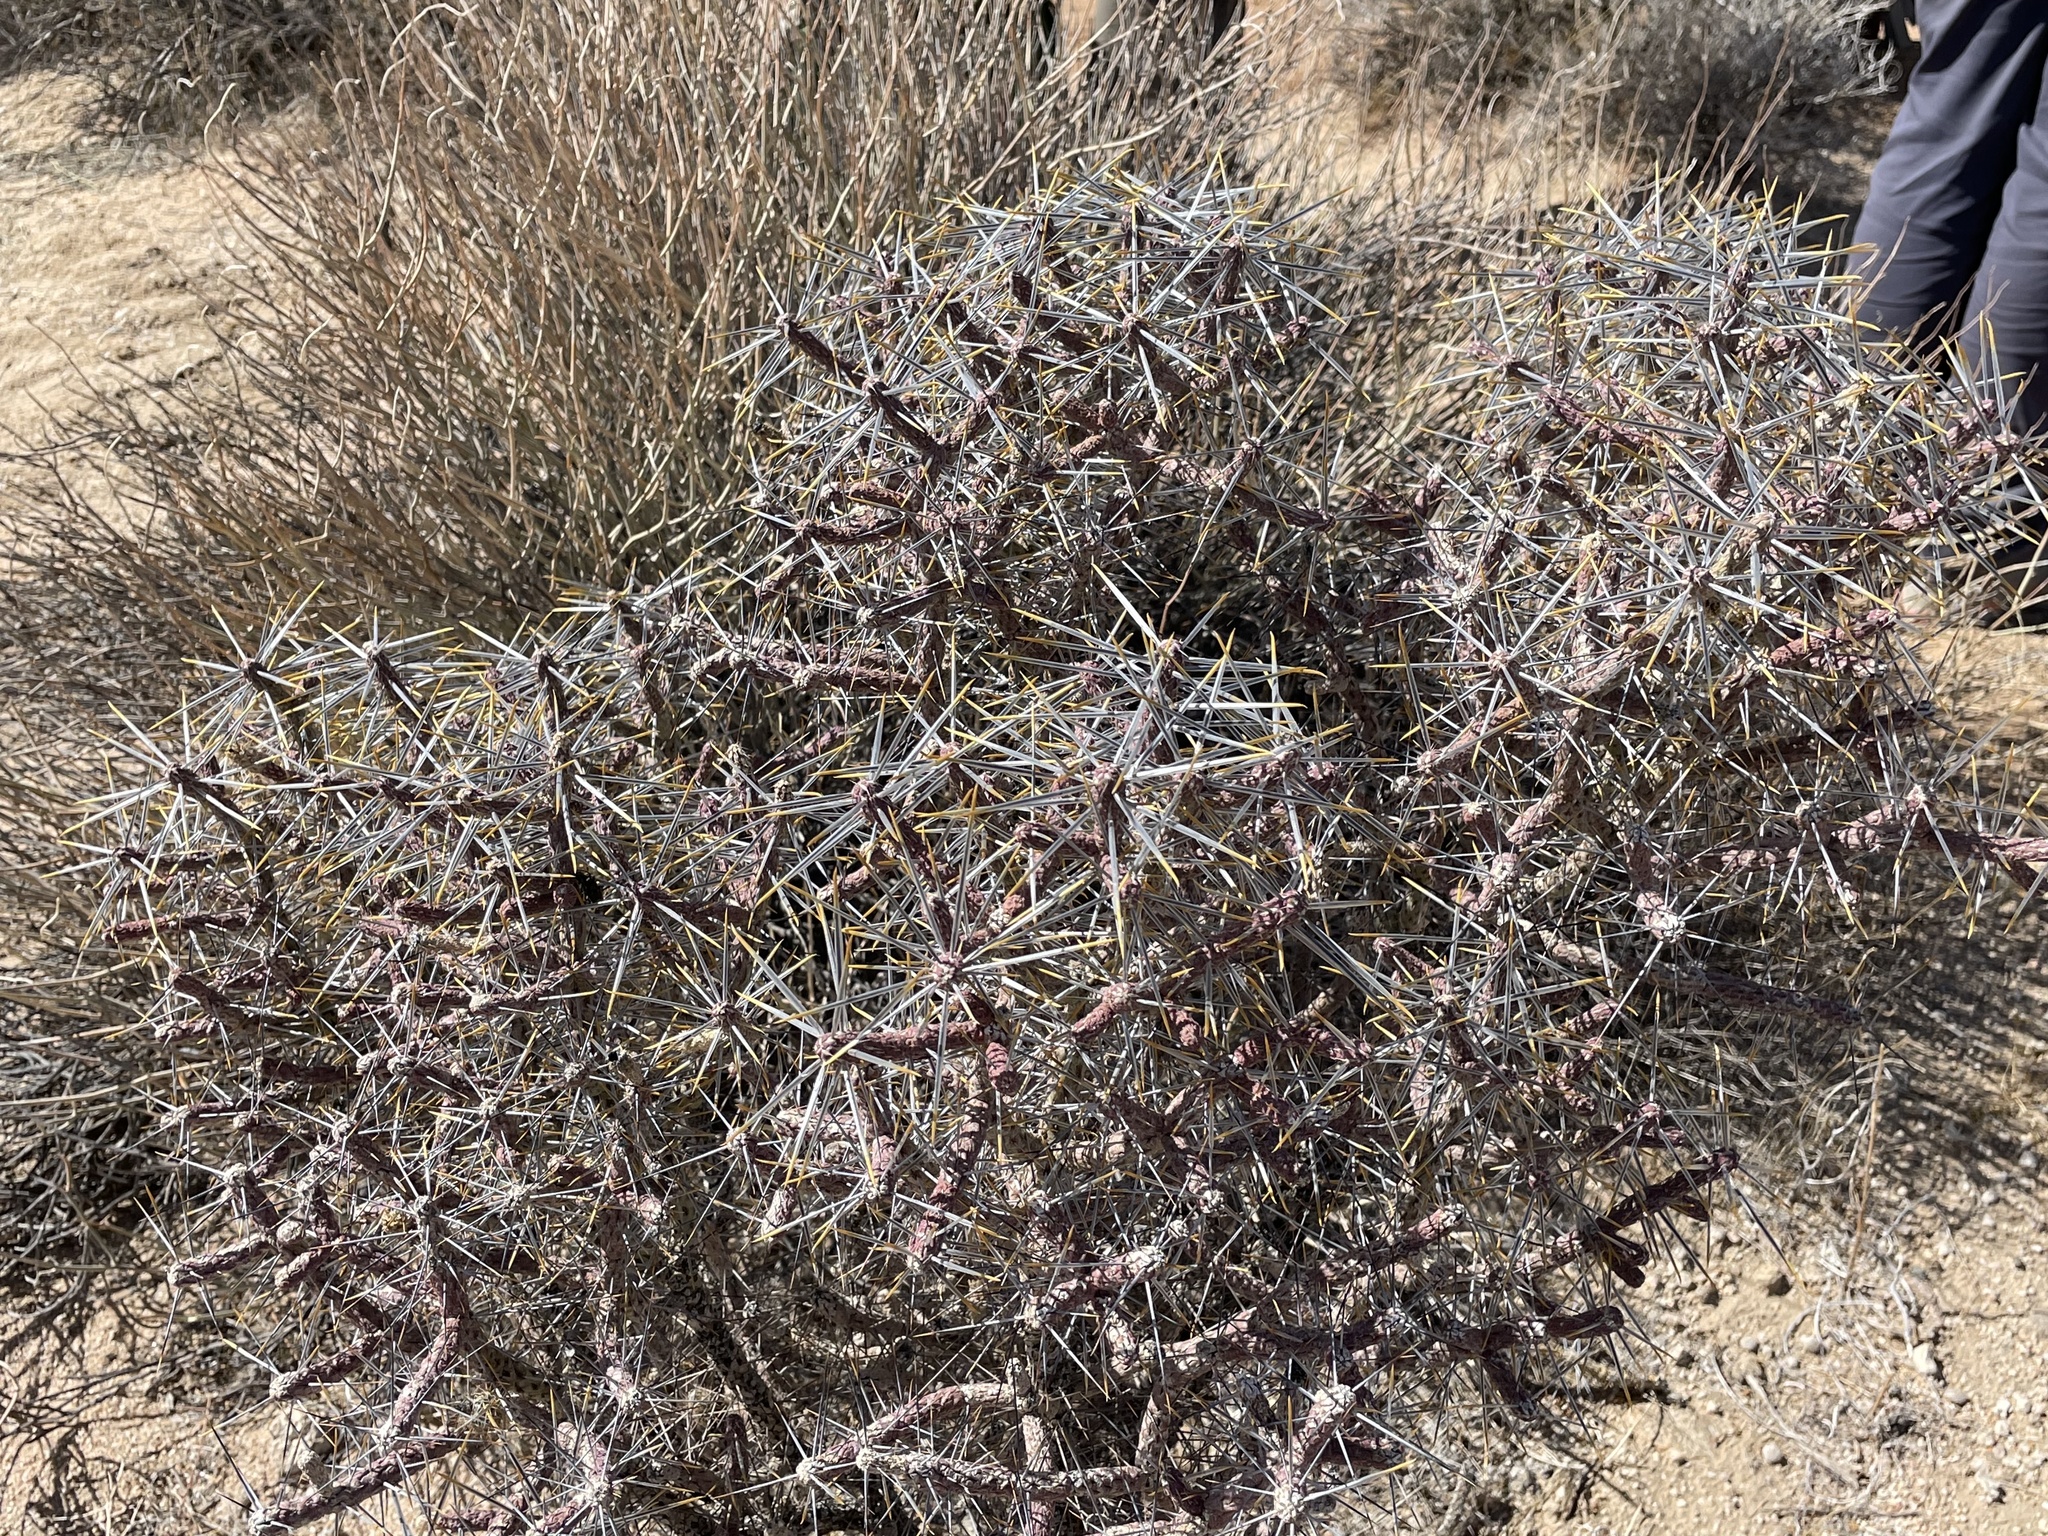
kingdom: Plantae
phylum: Tracheophyta
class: Magnoliopsida
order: Caryophyllales
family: Cactaceae
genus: Cylindropuntia
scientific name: Cylindropuntia ramosissima
